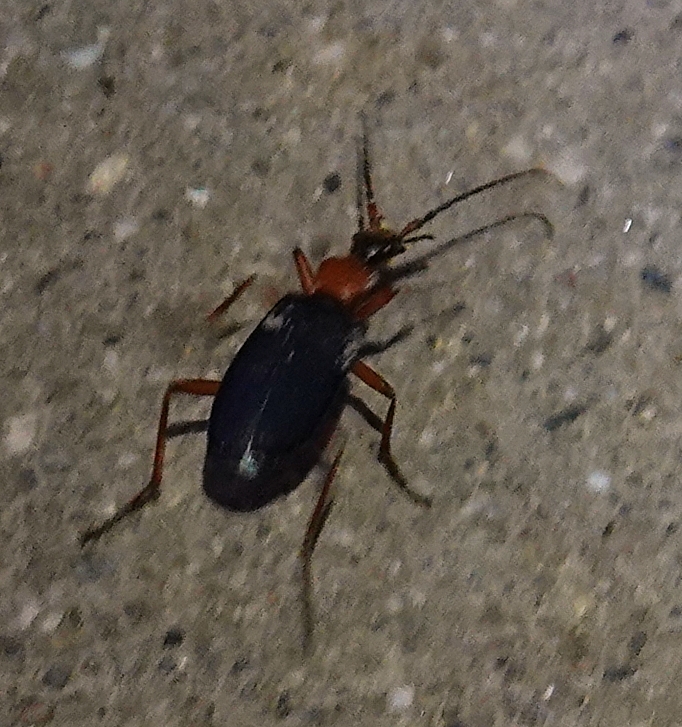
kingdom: Animalia
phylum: Arthropoda
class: Insecta
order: Coleoptera
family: Carabidae
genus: Galerita
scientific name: Galerita bicolor
